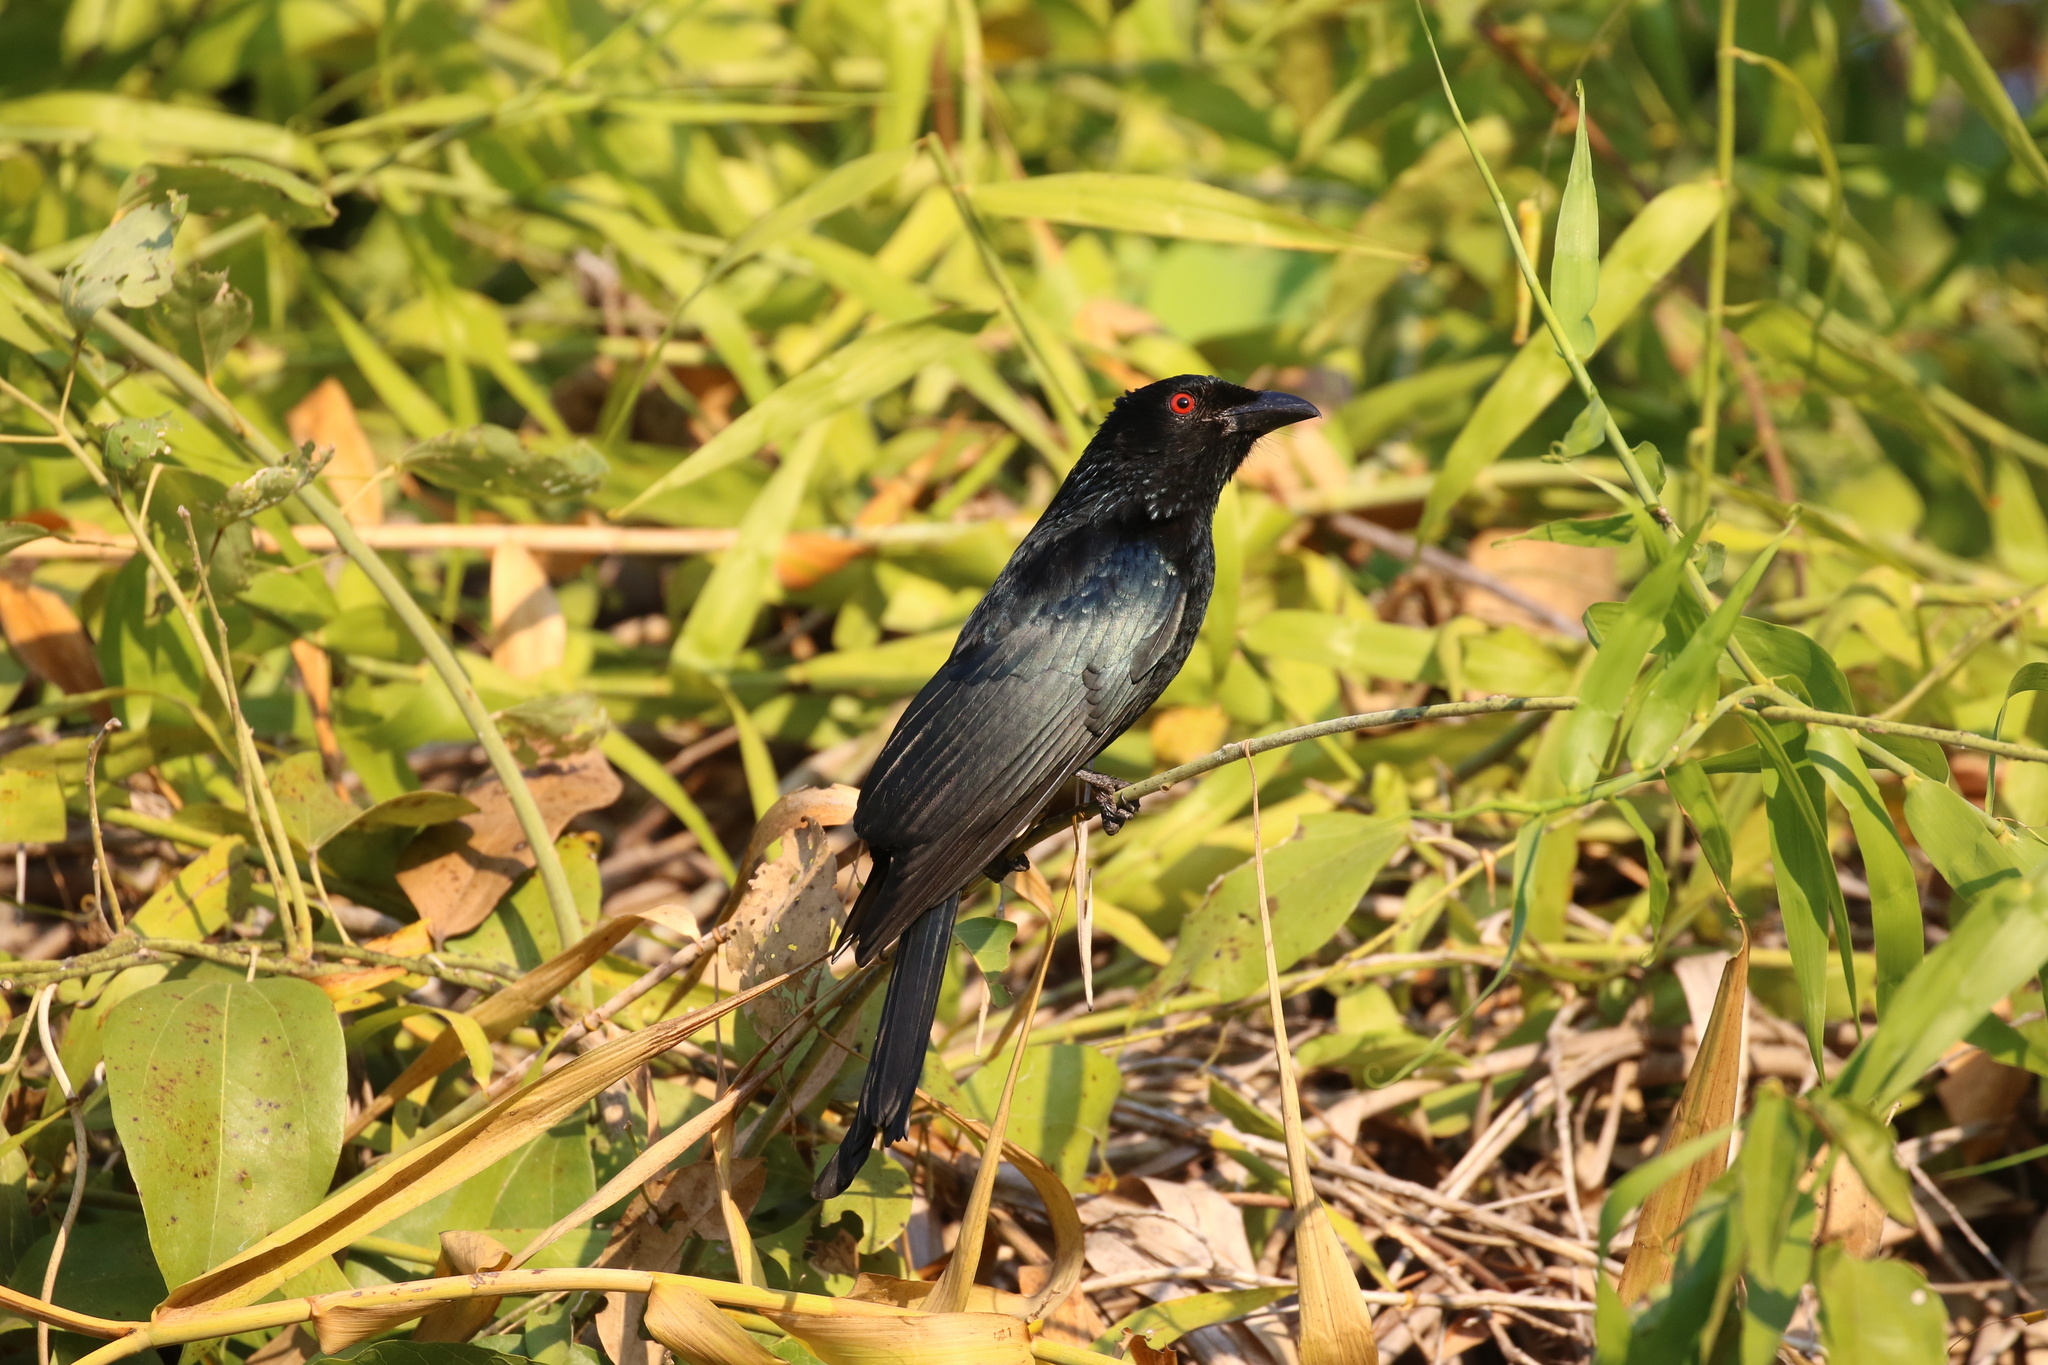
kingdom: Animalia
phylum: Chordata
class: Aves
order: Passeriformes
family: Dicruridae
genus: Dicrurus
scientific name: Dicrurus bracteatus
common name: Spangled drongo
